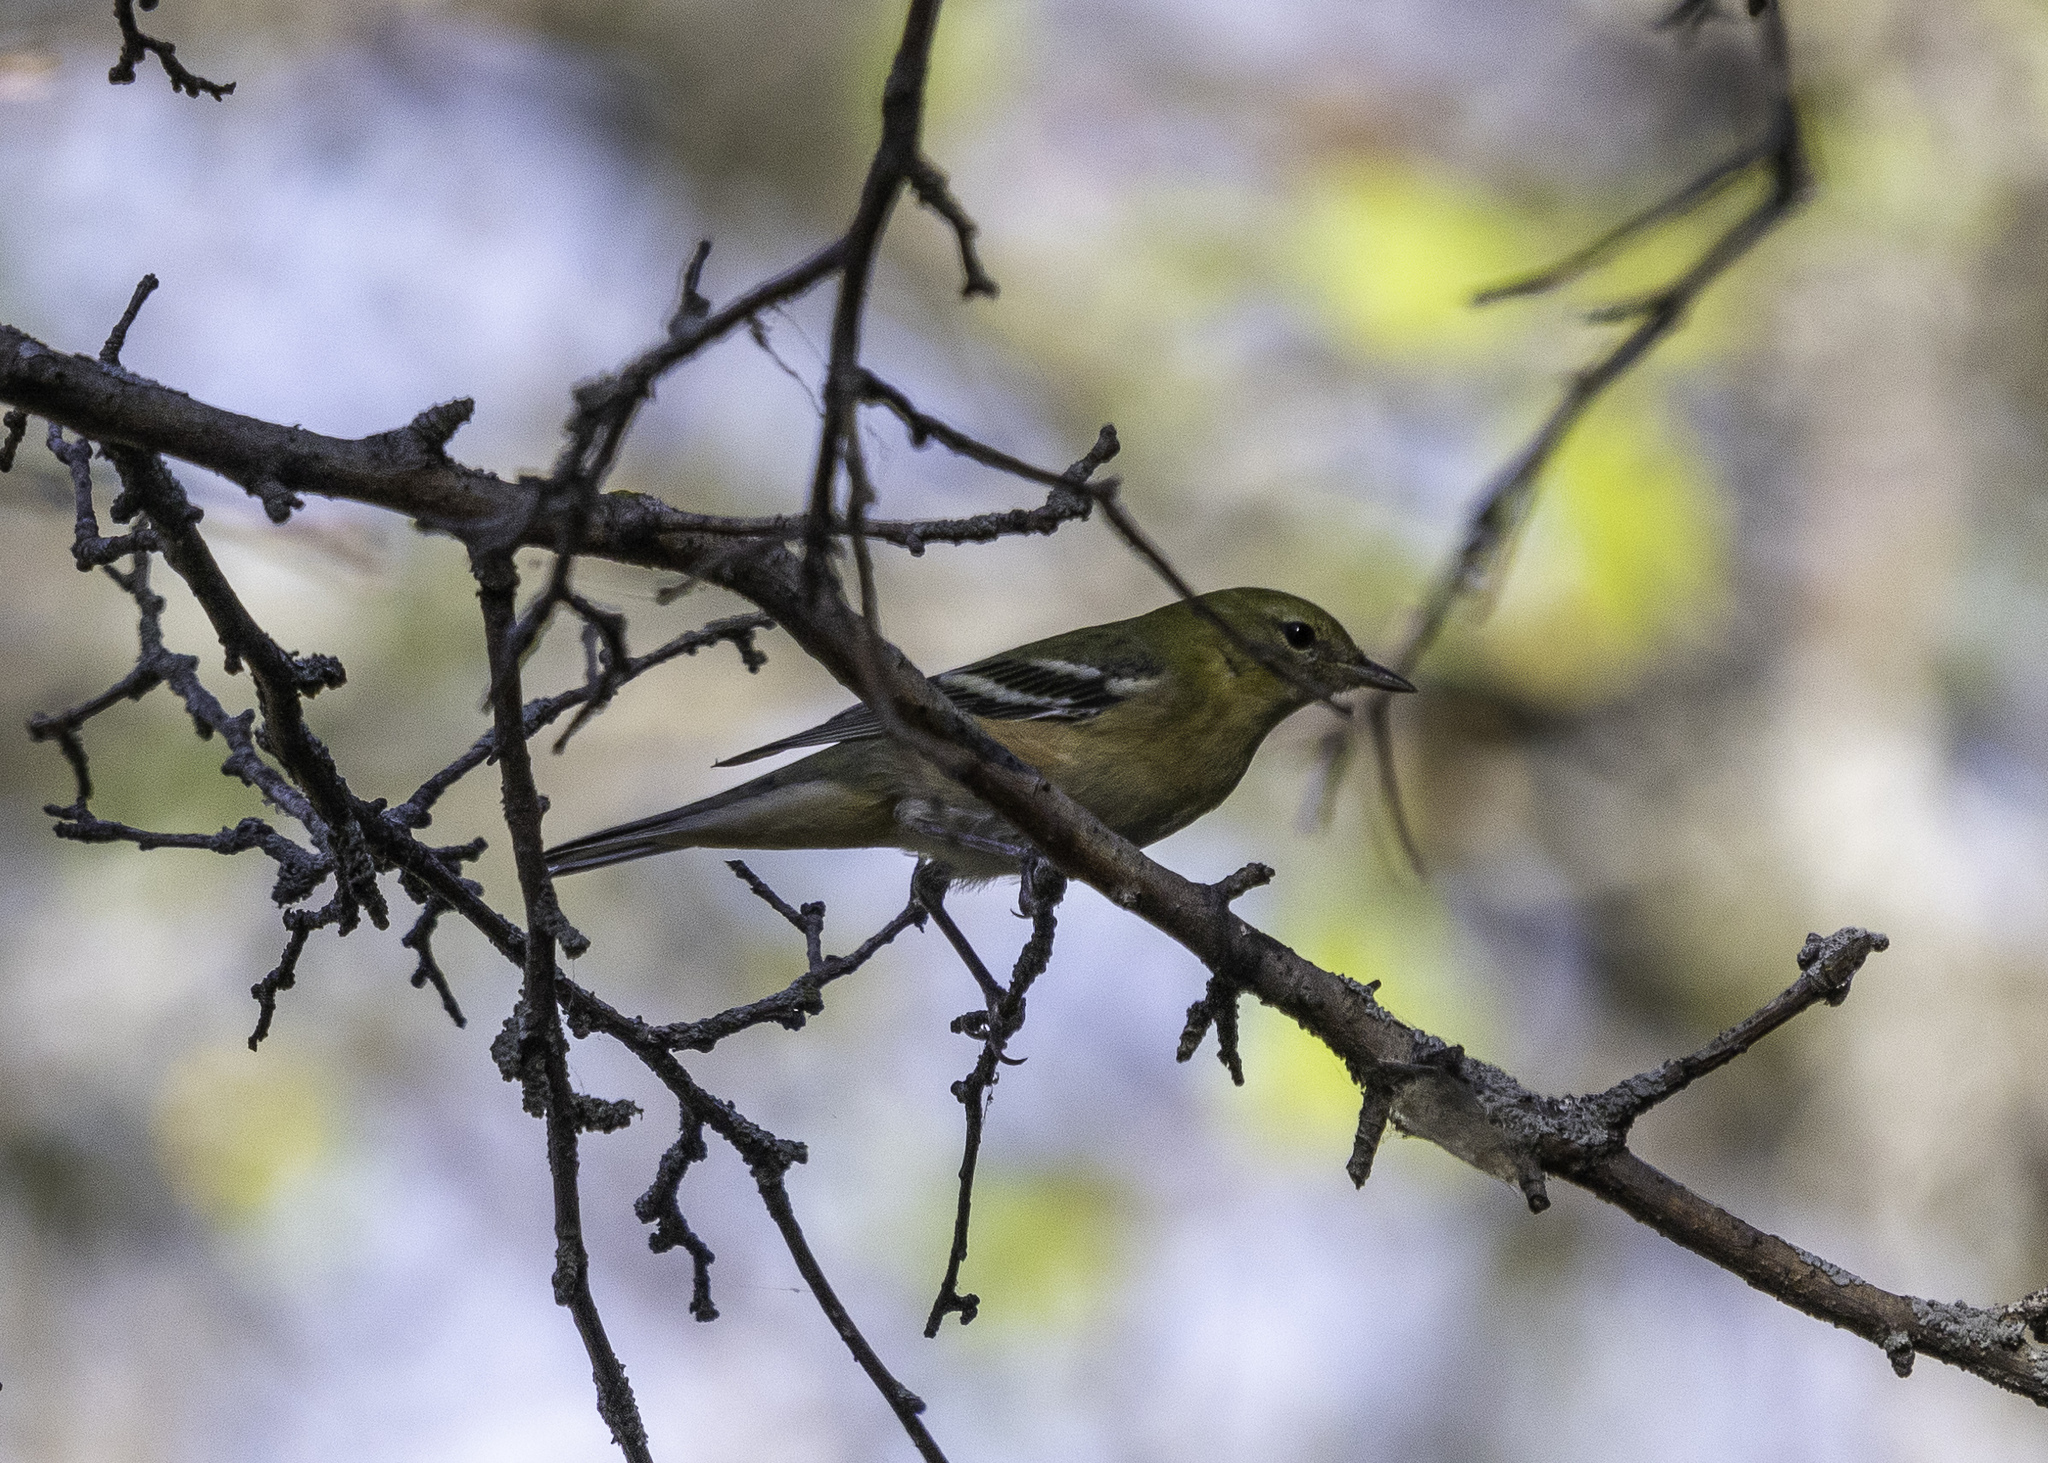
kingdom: Animalia
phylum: Chordata
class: Aves
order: Passeriformes
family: Parulidae
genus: Setophaga
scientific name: Setophaga castanea
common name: Bay-breasted warbler
